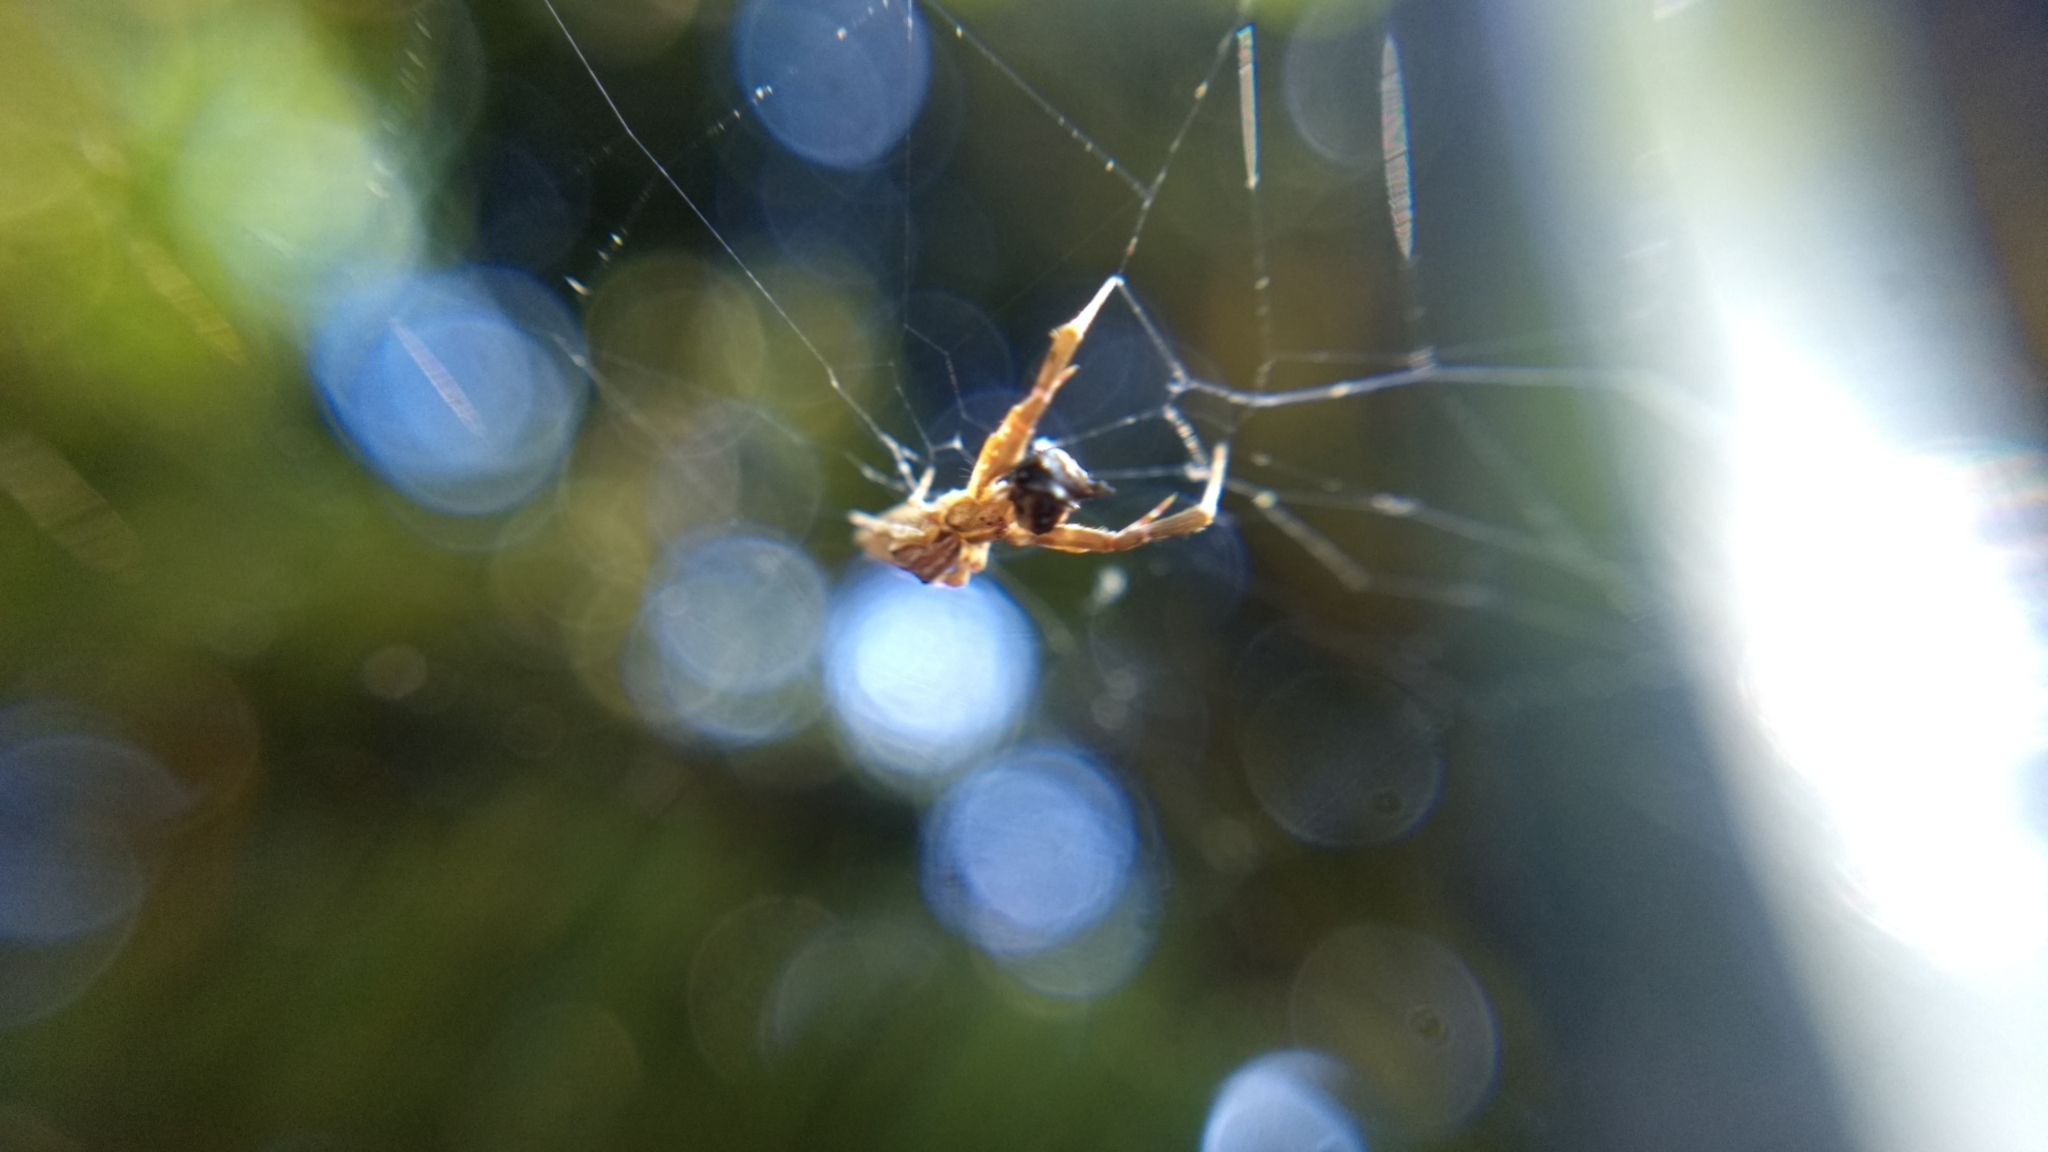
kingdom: Animalia
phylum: Arthropoda
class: Arachnida
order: Araneae
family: Uloboridae
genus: Uloborus
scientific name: Uloborus glomosus
